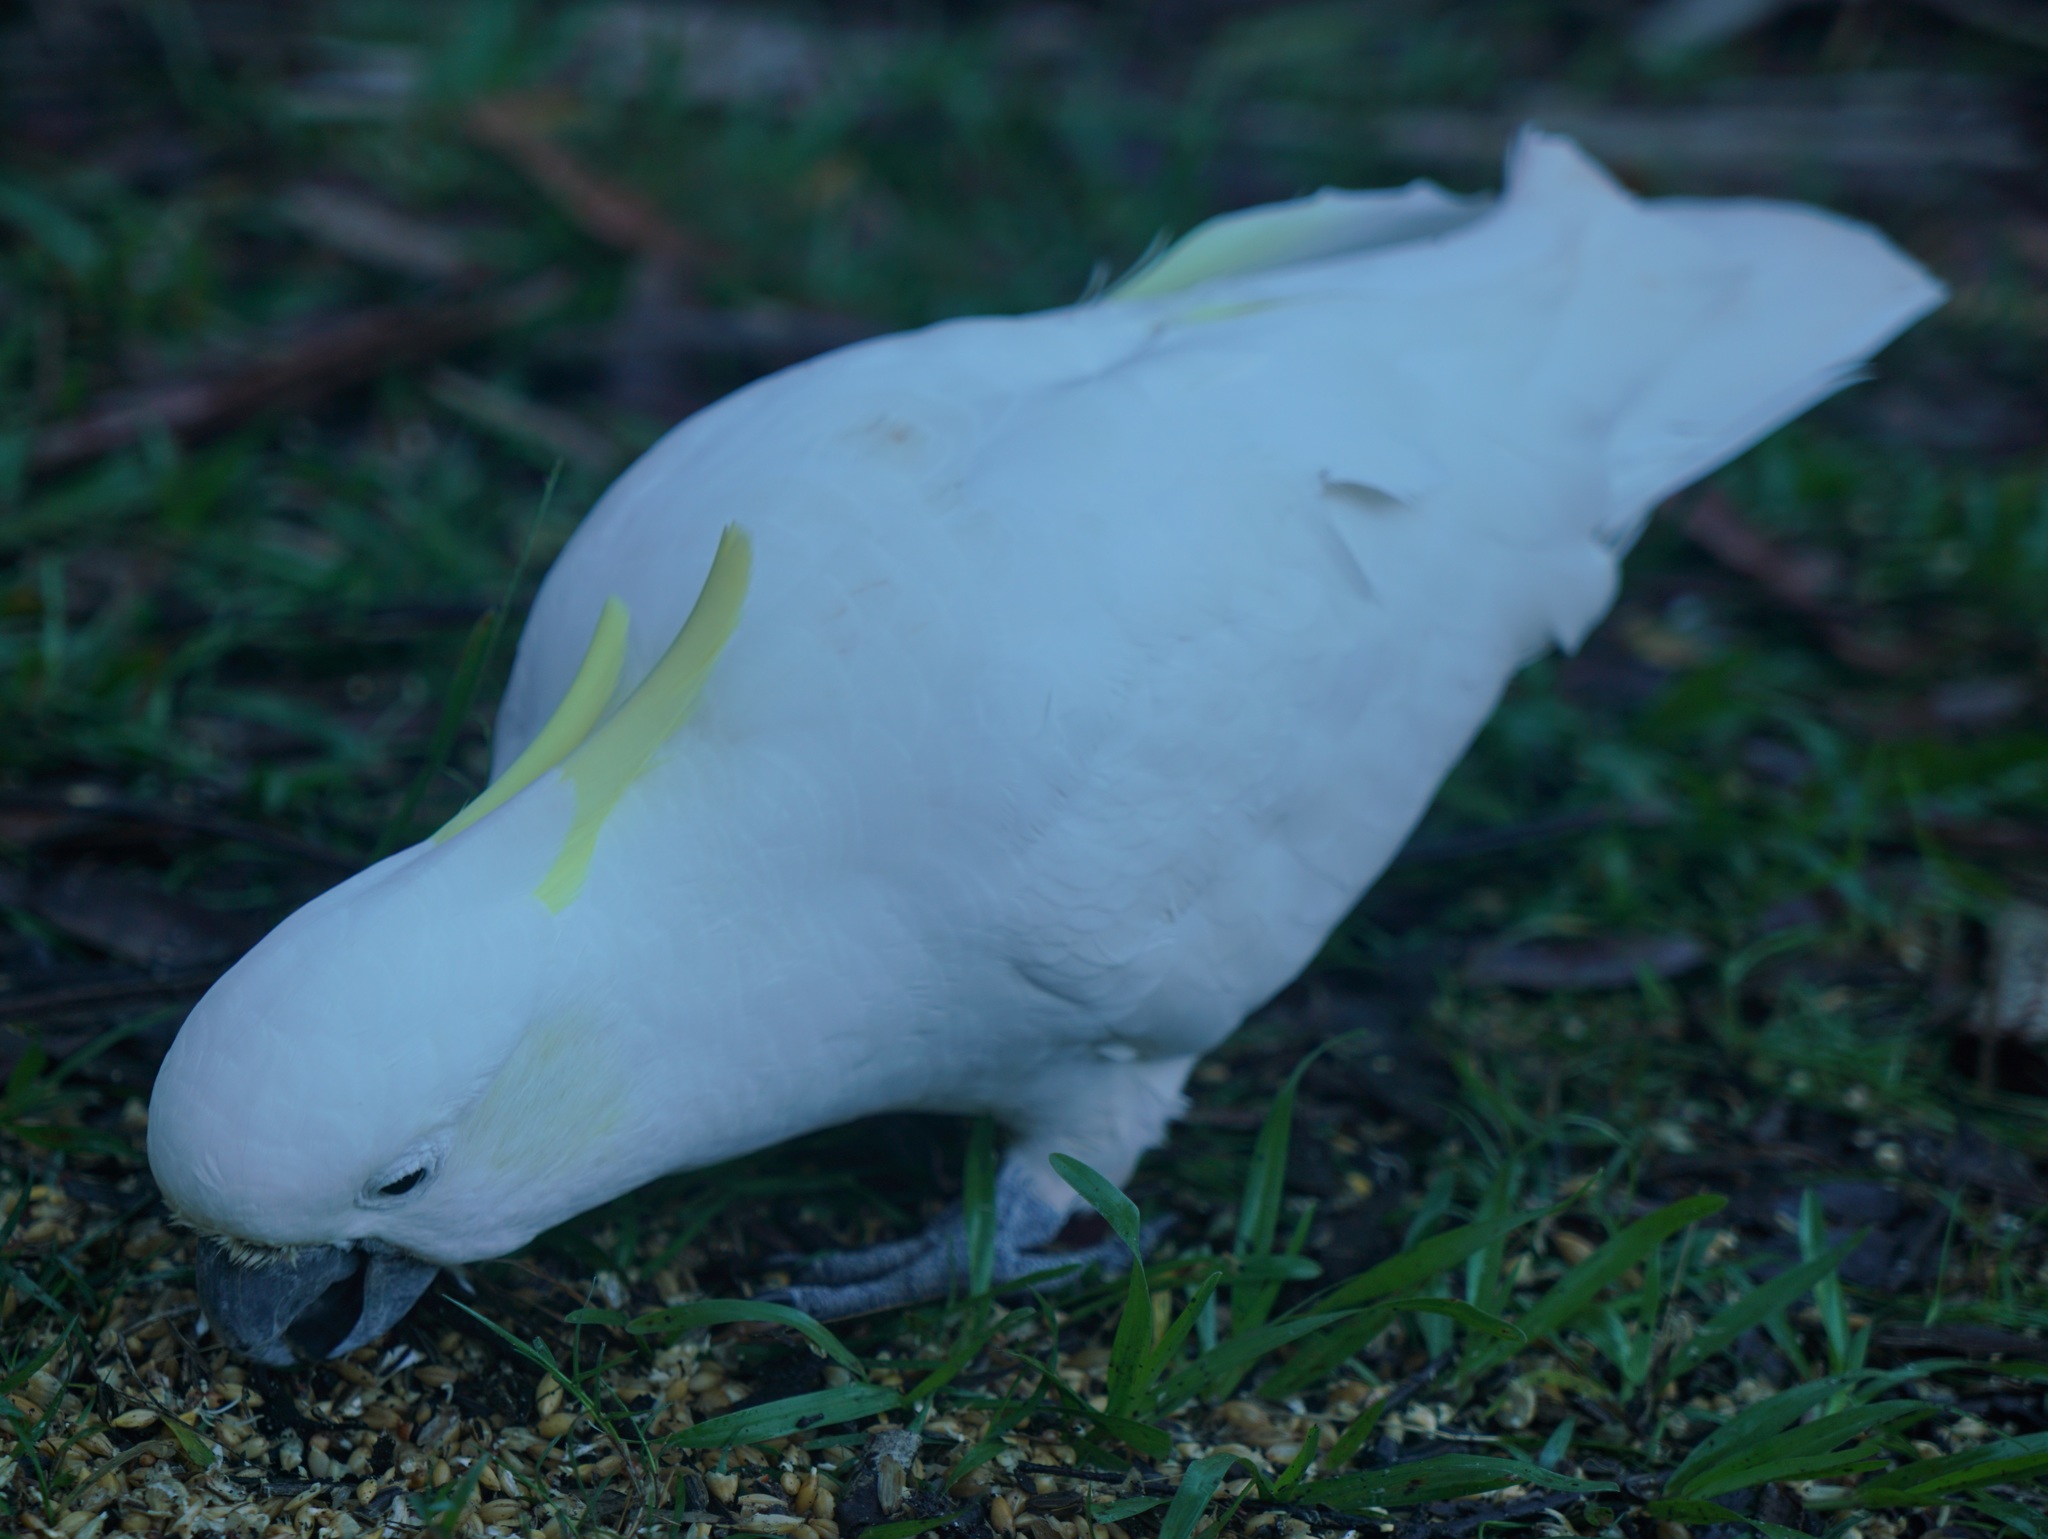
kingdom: Animalia
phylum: Chordata
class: Aves
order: Psittaciformes
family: Psittacidae
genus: Cacatua
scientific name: Cacatua galerita
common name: Sulphur-crested cockatoo
